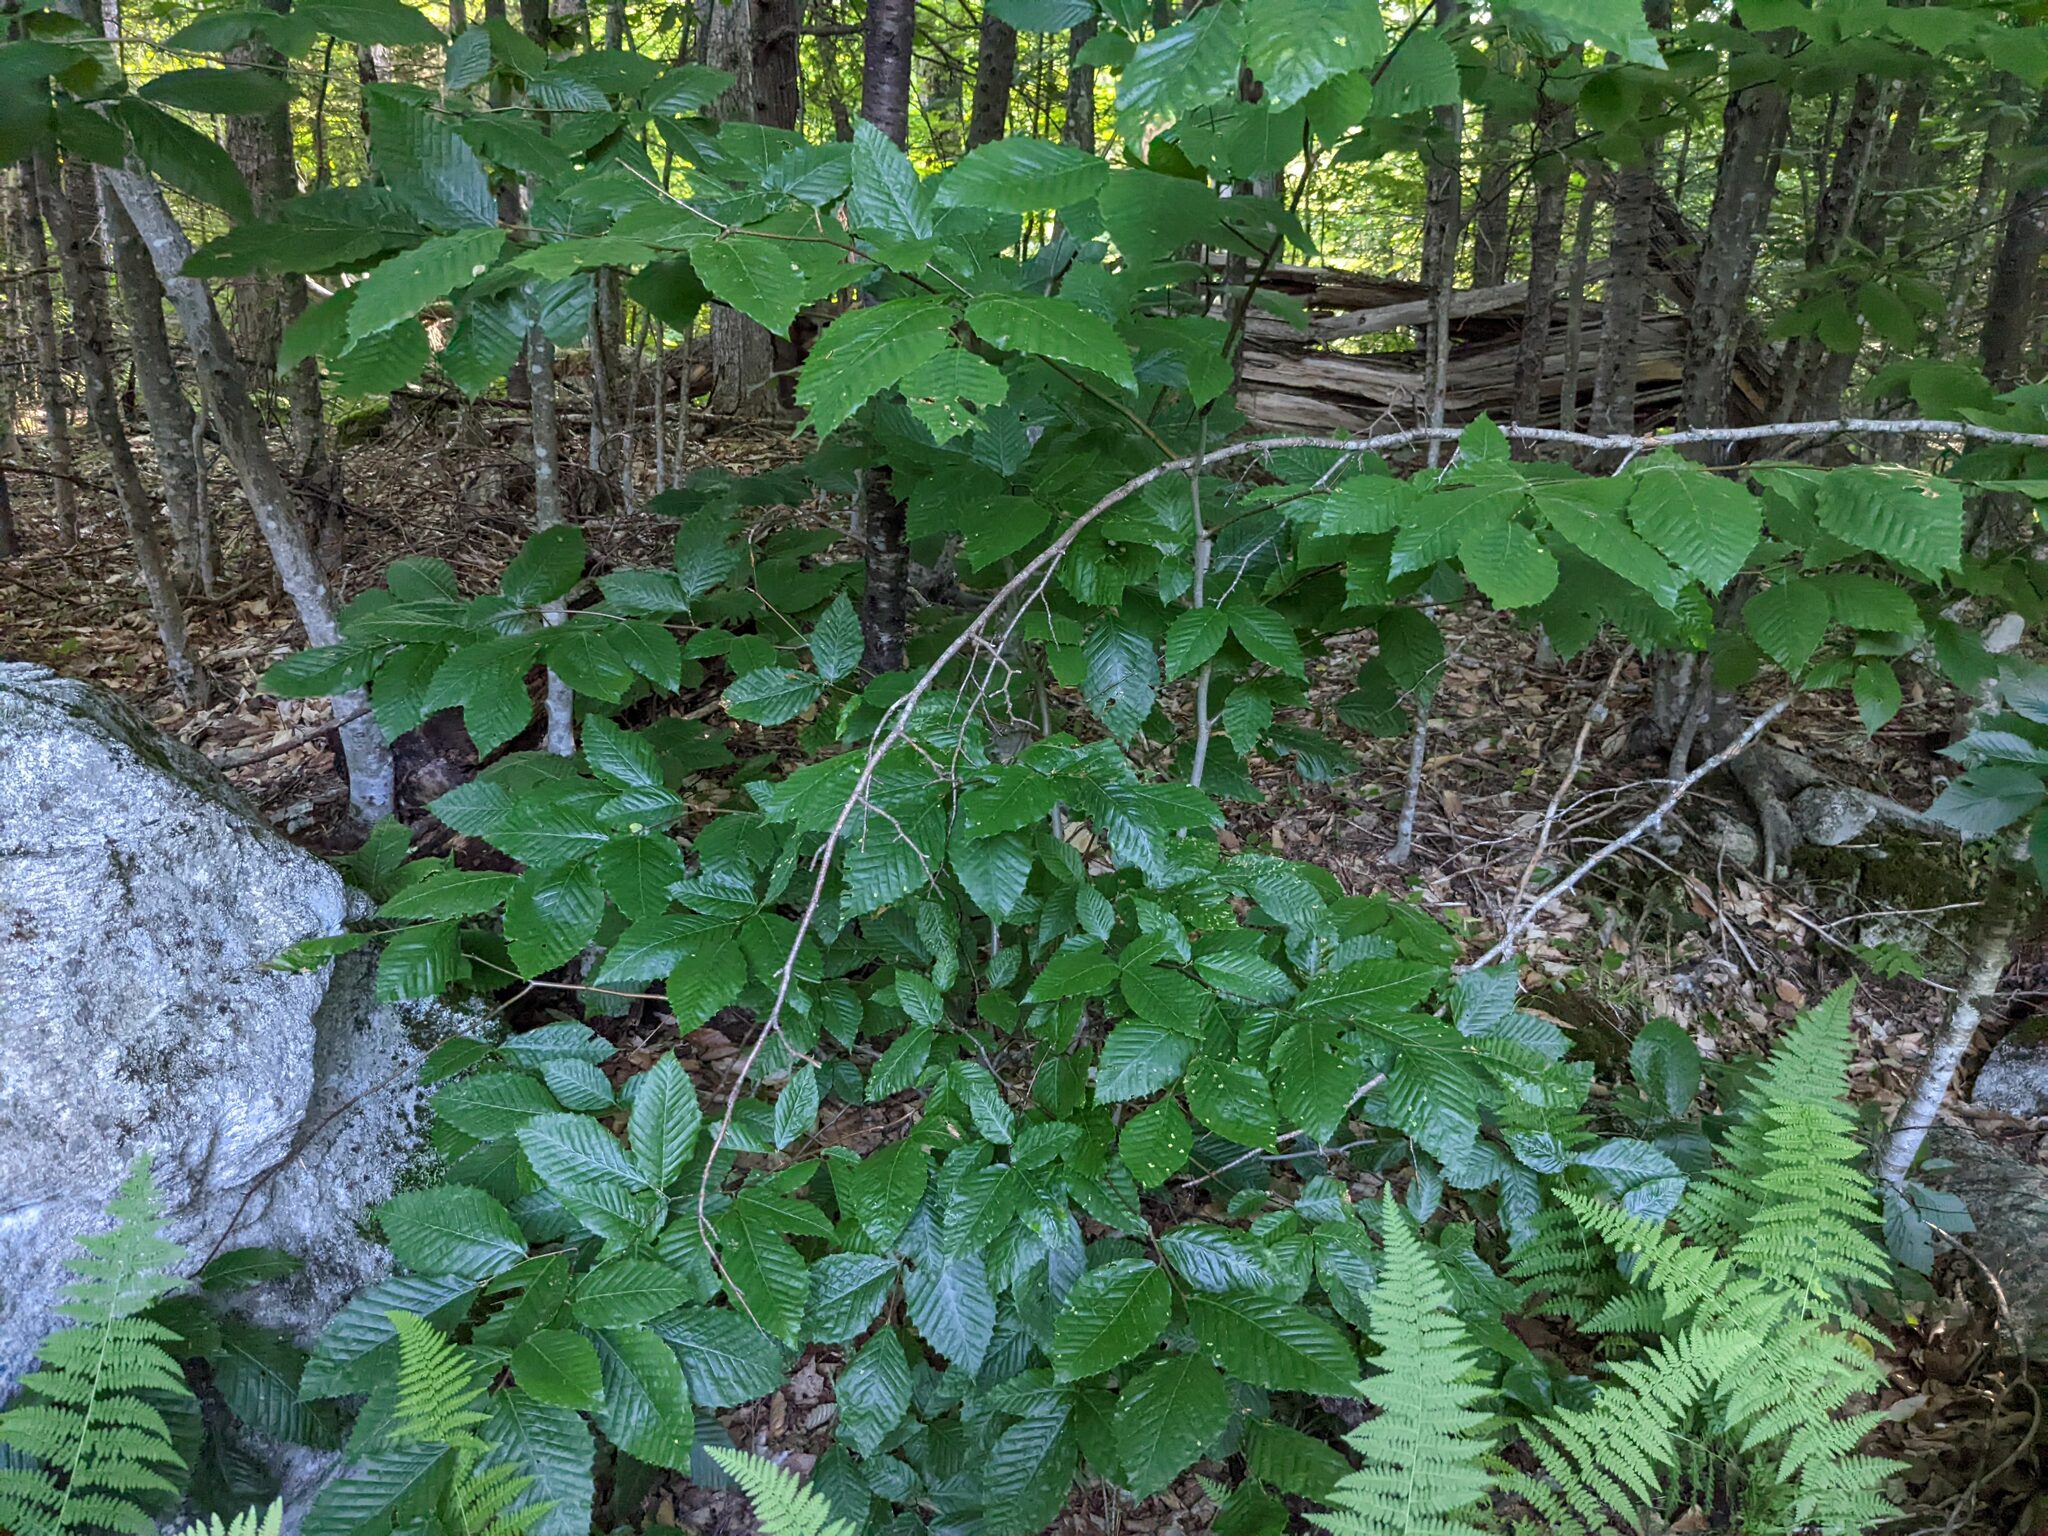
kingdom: Plantae
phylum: Tracheophyta
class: Magnoliopsida
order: Fagales
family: Fagaceae
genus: Fagus
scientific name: Fagus grandifolia
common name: American beech
